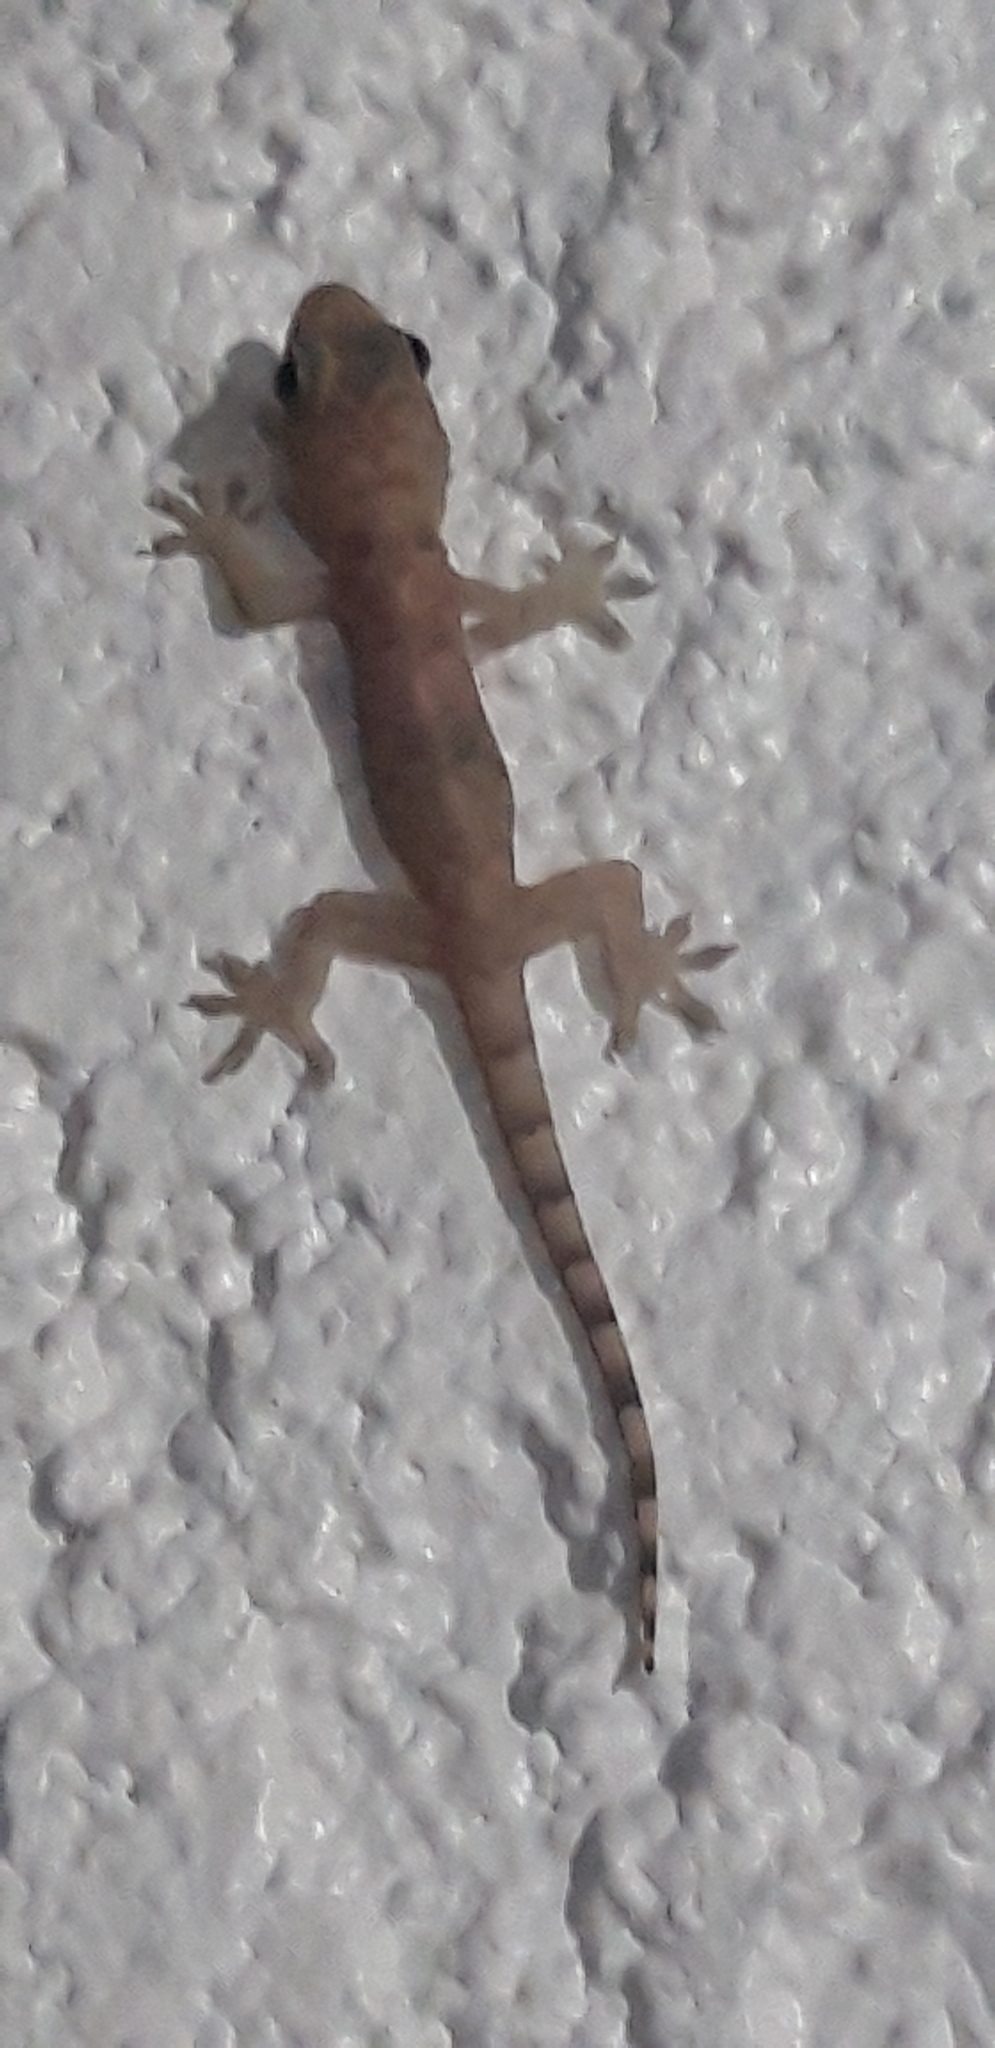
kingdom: Animalia
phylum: Chordata
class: Squamata
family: Gekkonidae
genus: Hemidactylus
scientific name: Hemidactylus mabouia
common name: House gecko
